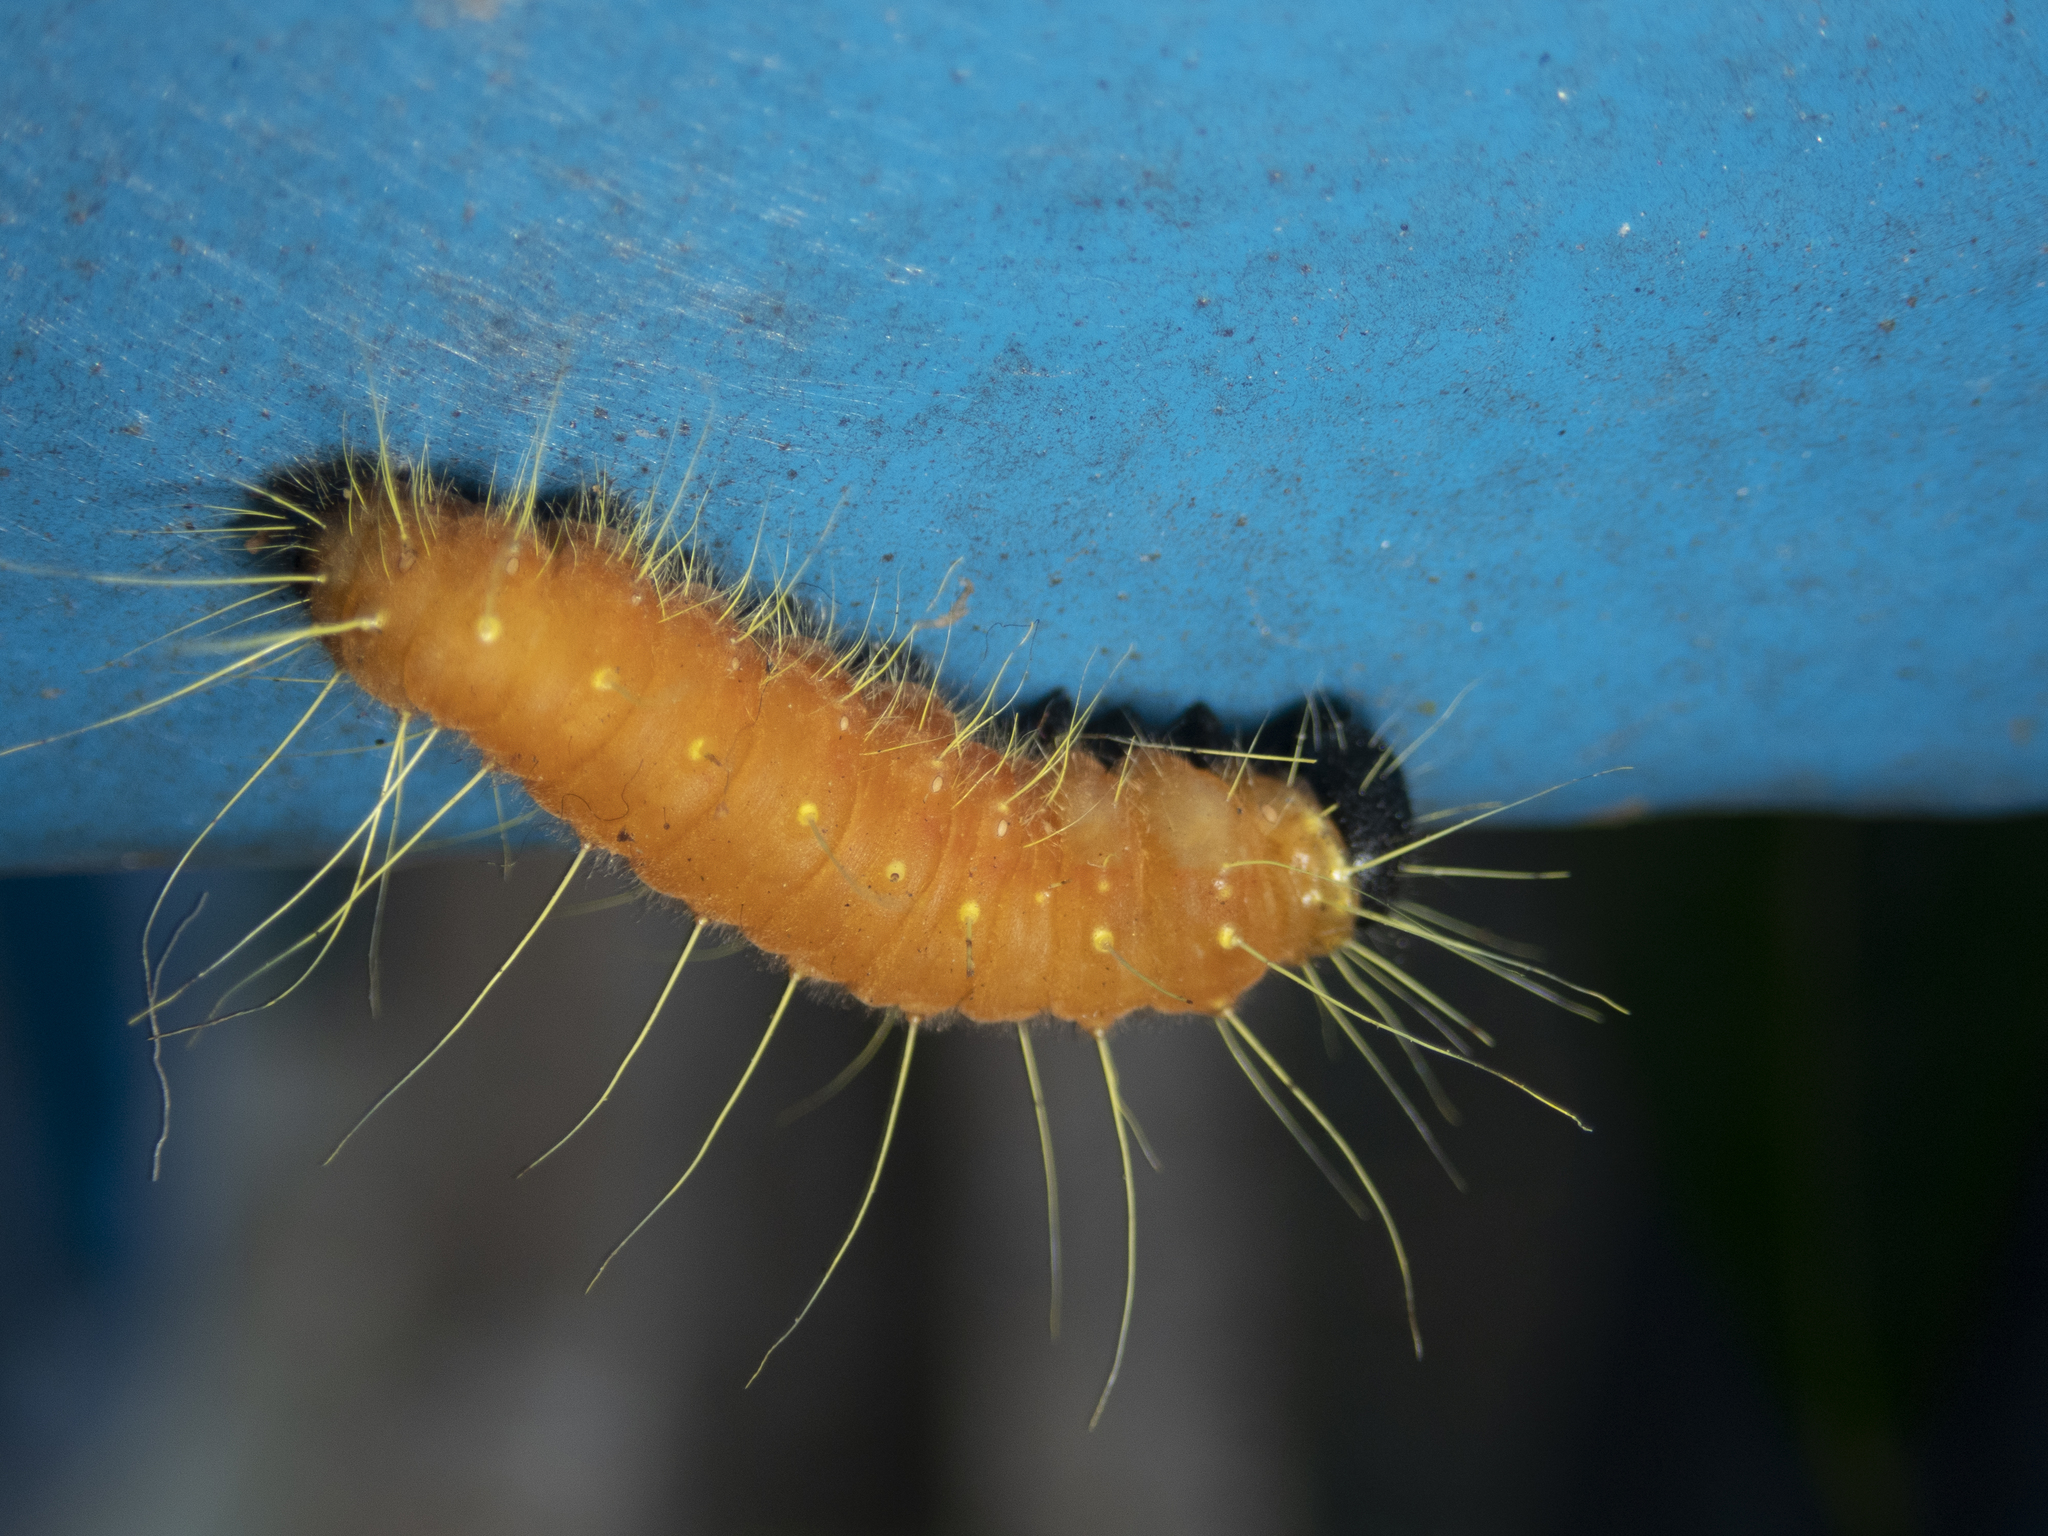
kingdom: Animalia
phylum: Arthropoda
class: Insecta
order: Lepidoptera
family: Pieridae
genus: Delias
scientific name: Delias hyparete
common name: Painted jezebel
